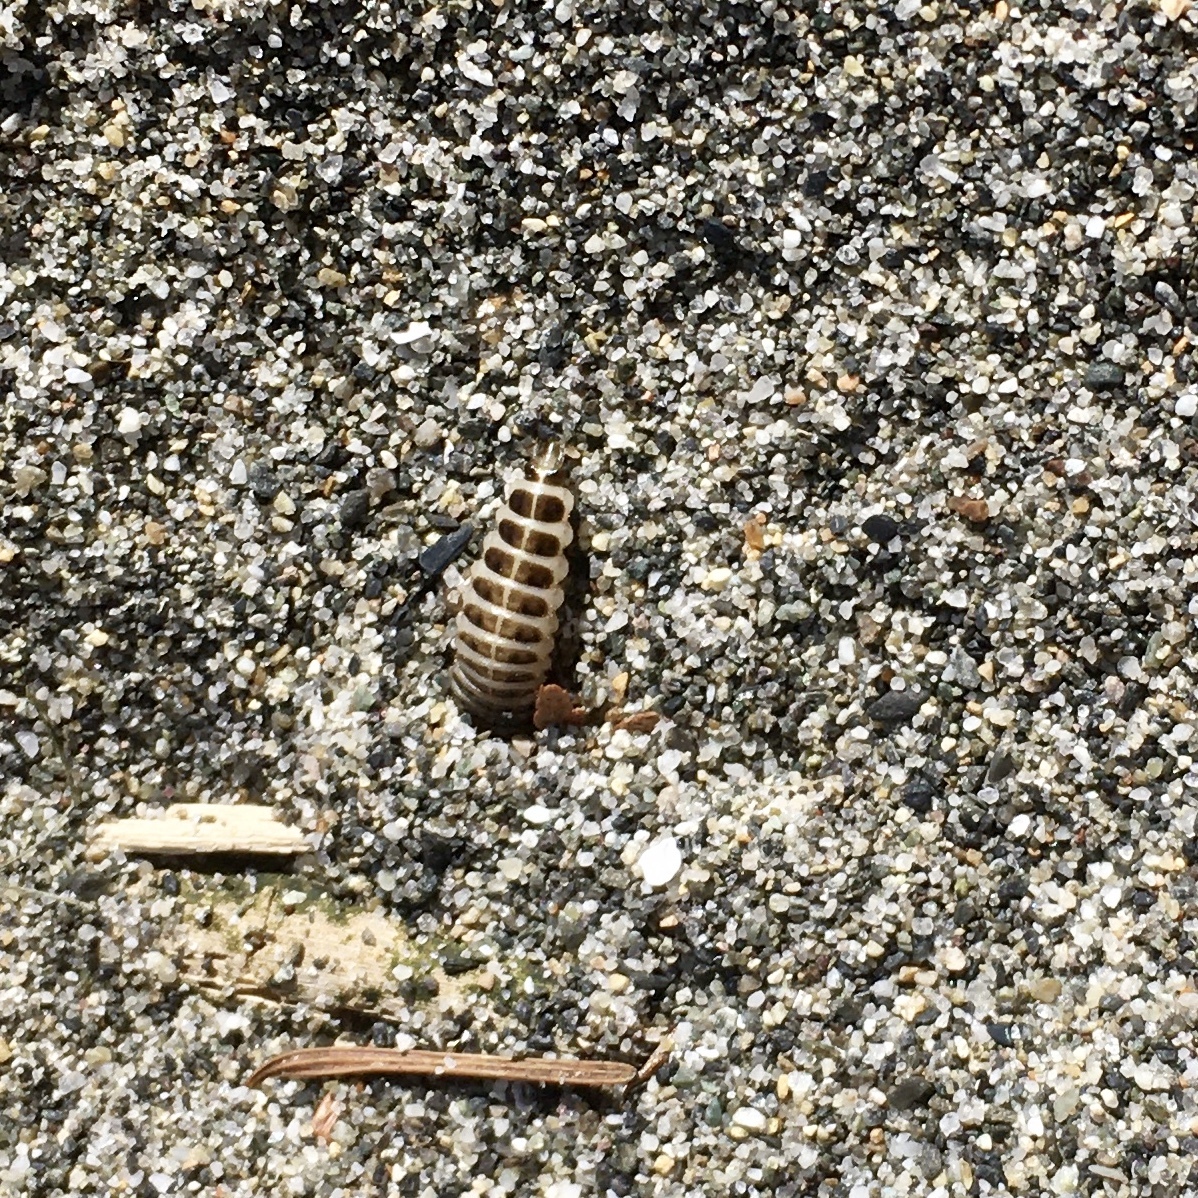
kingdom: Animalia
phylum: Arthropoda
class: Insecta
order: Coleoptera
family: Staphylinidae
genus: Thinopinus
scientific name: Thinopinus pictus
